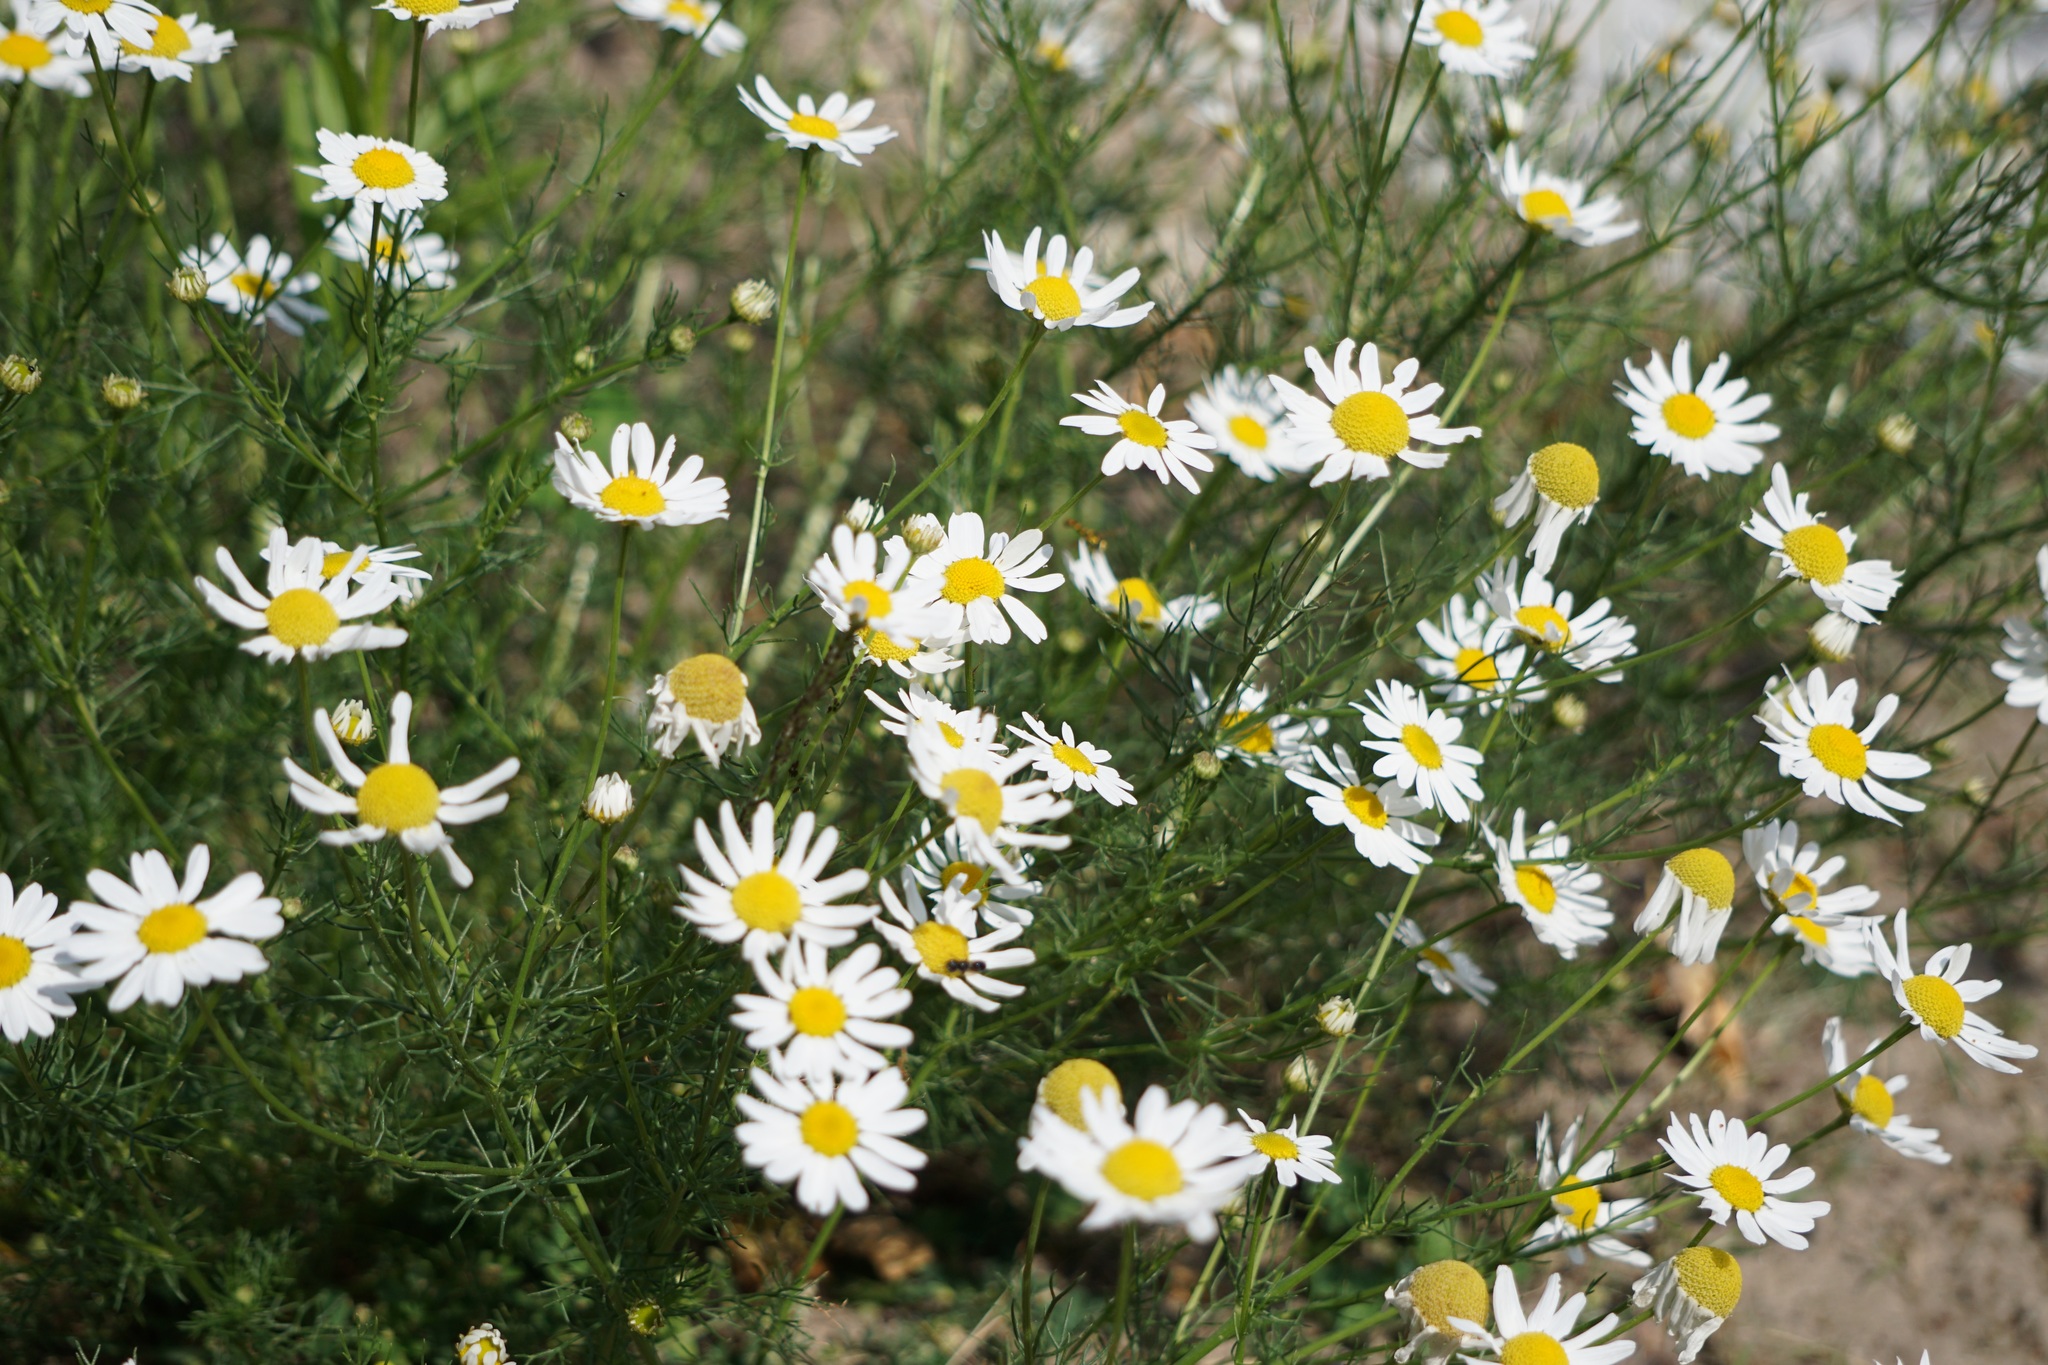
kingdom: Plantae
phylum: Tracheophyta
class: Magnoliopsida
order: Asterales
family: Asteraceae
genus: Tripleurospermum
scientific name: Tripleurospermum inodorum
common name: Scentless mayweed
